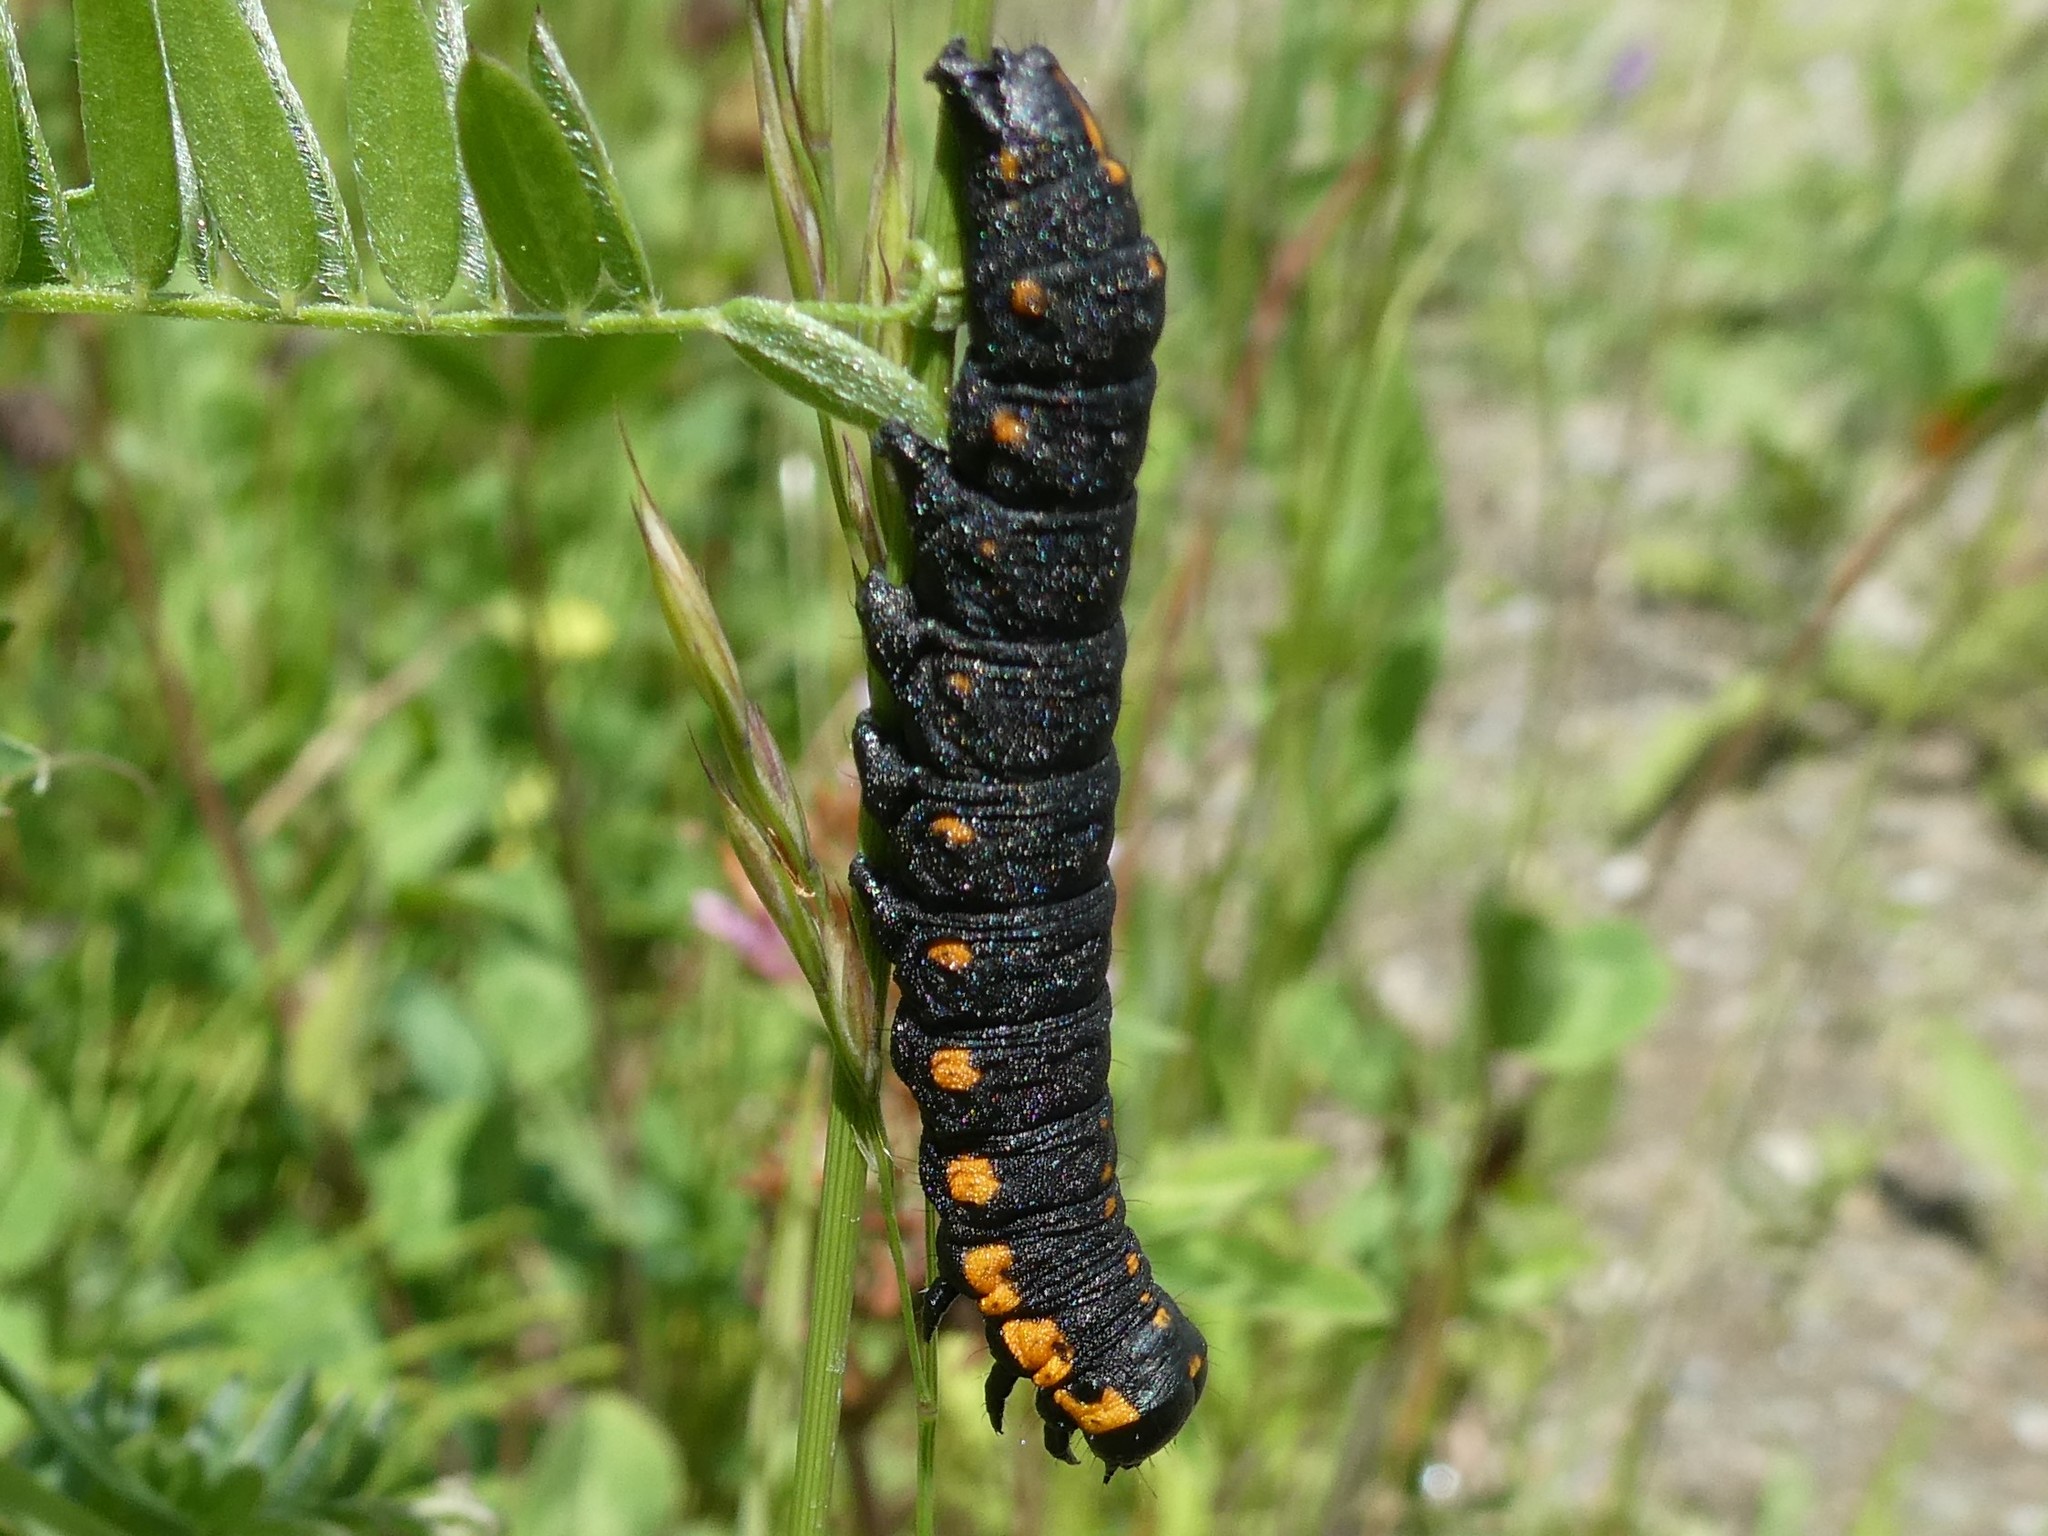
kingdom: Animalia
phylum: Arthropoda
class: Insecta
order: Lepidoptera
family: Noctuidae
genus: Cucullia
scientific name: Cucullia intermedia
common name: Goldenrod cutworm
